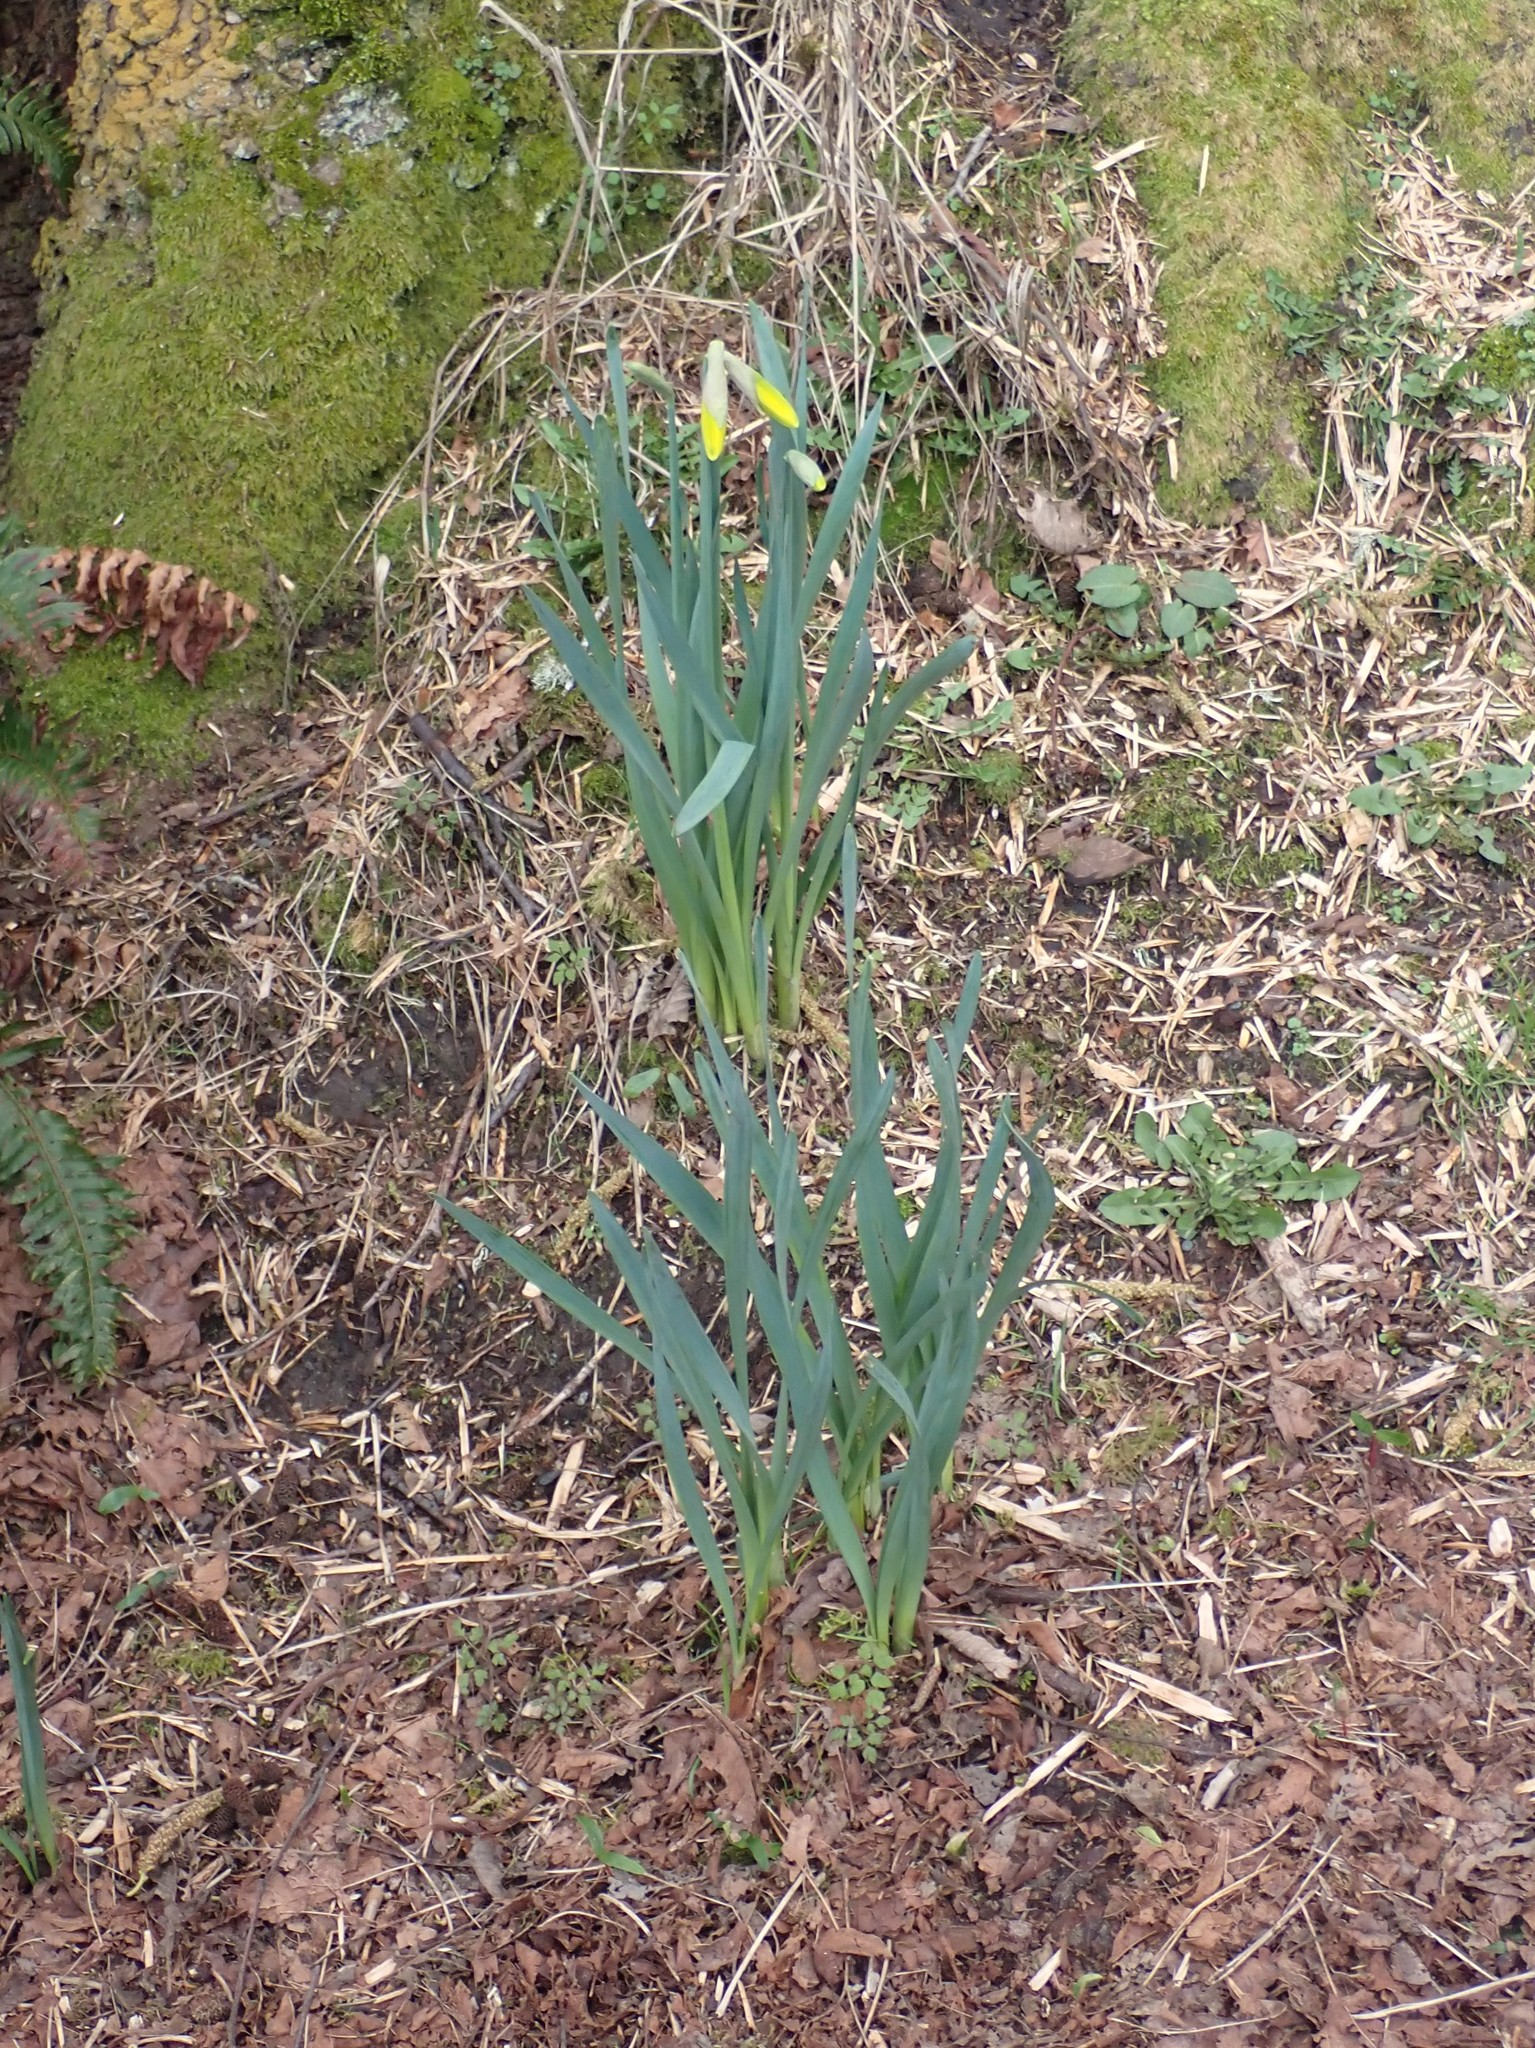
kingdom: Plantae
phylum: Tracheophyta
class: Liliopsida
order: Asparagales
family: Amaryllidaceae
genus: Narcissus
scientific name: Narcissus pseudonarcissus
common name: Daffodil
